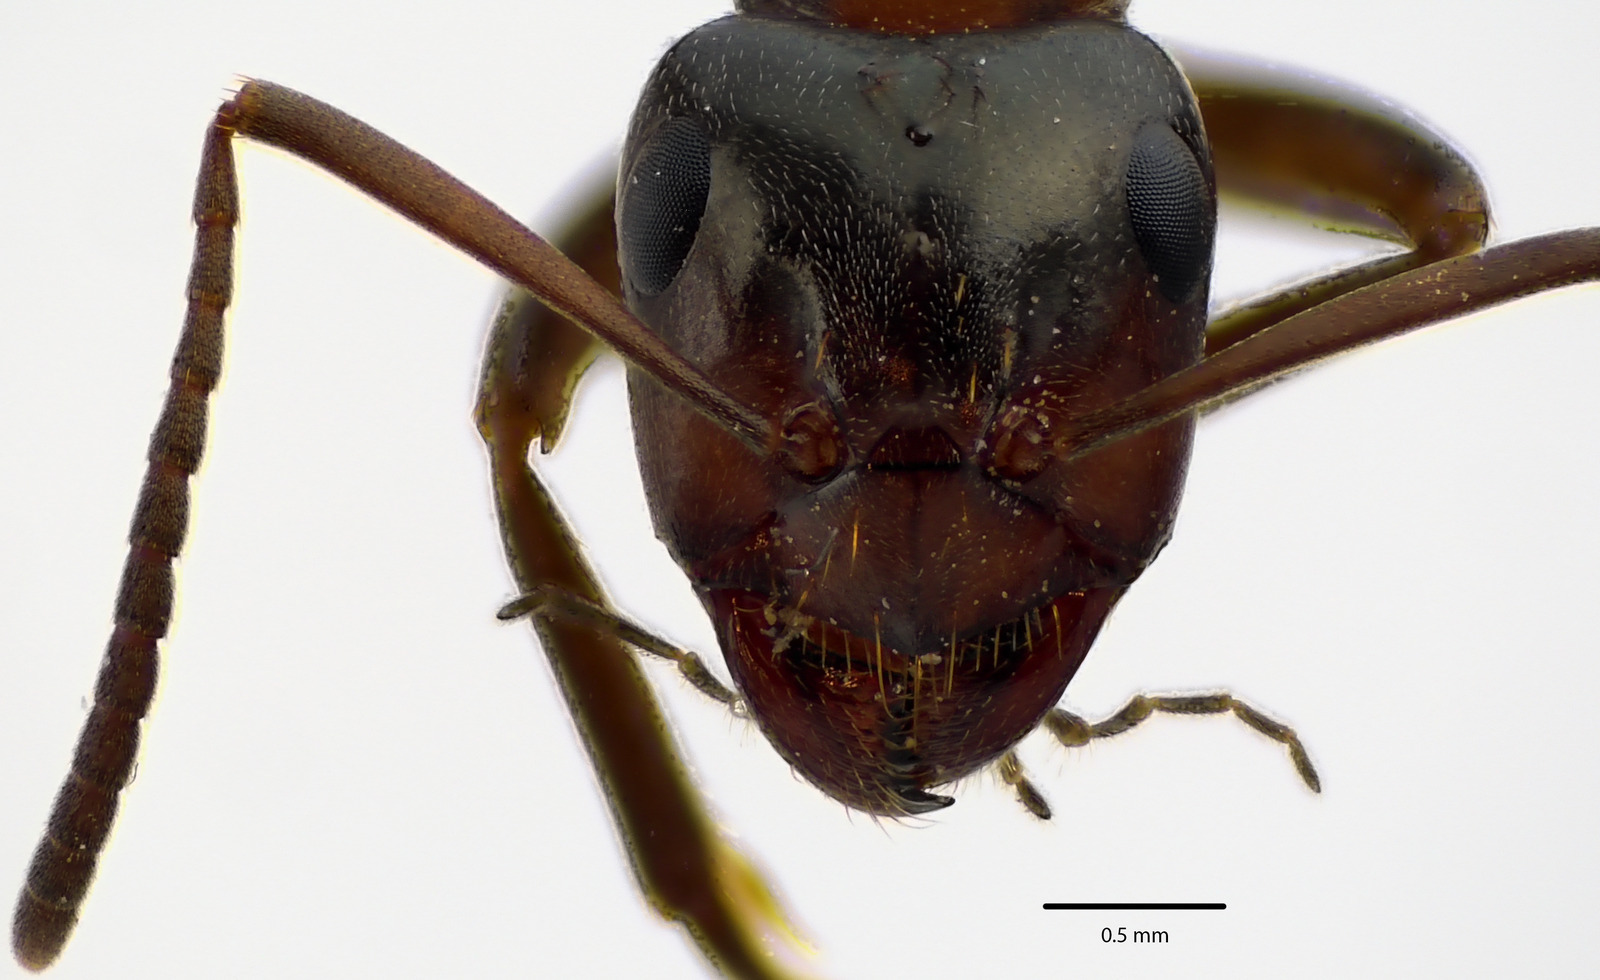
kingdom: Animalia
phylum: Arthropoda
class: Insecta
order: Hymenoptera
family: Formicidae
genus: Formica
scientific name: Formica ulkei
